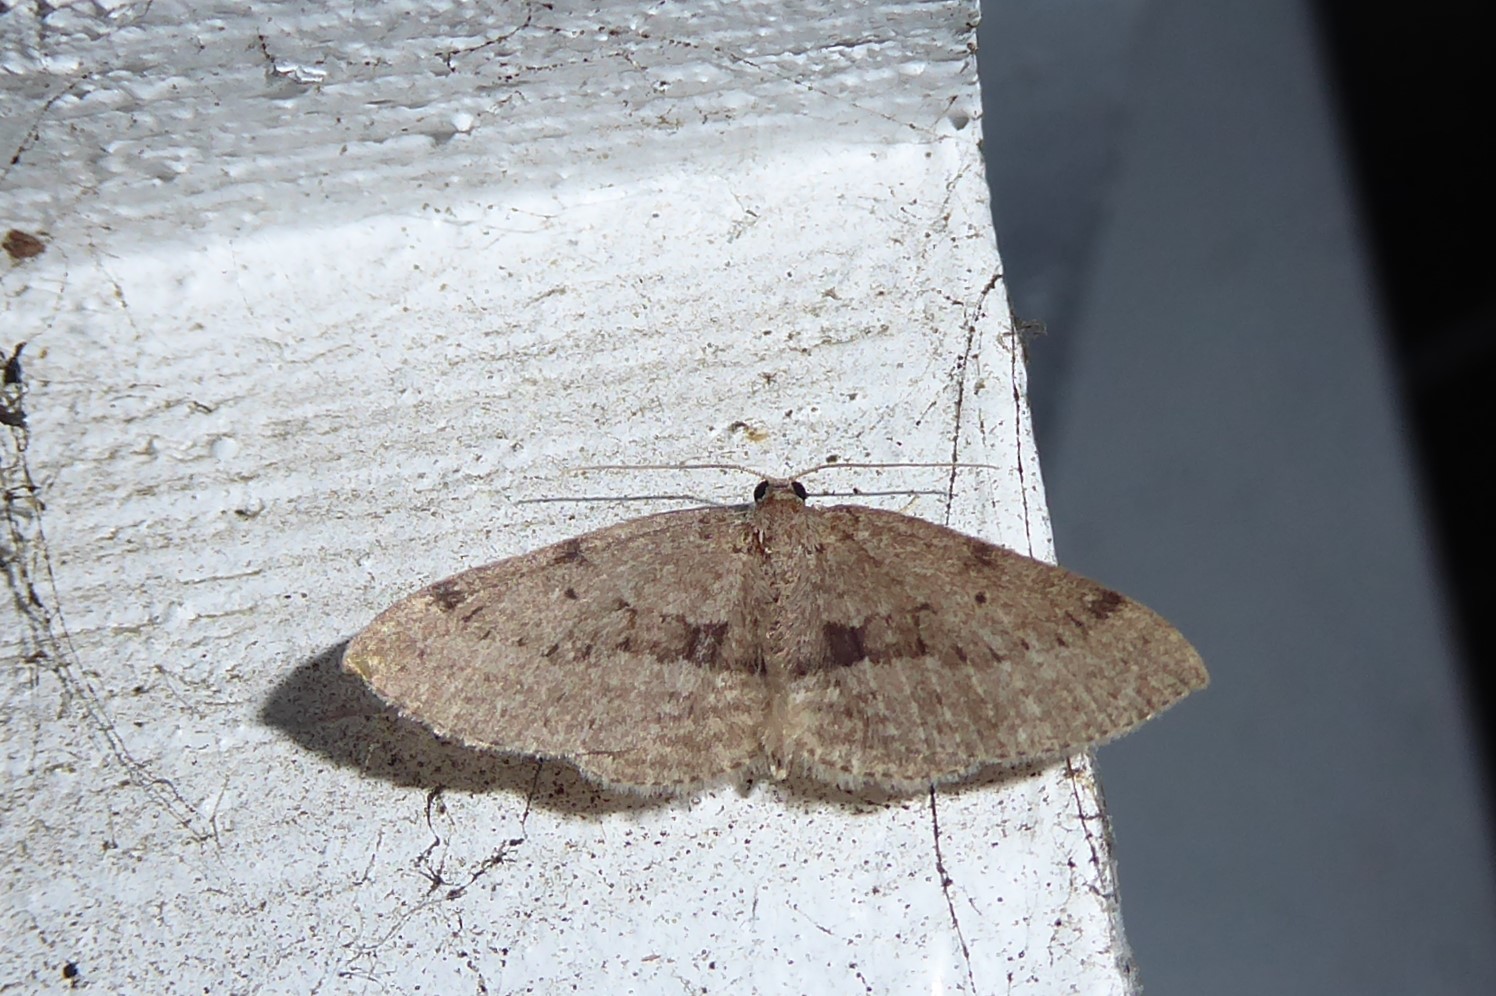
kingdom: Animalia
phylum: Arthropoda
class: Insecta
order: Lepidoptera
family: Geometridae
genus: Poecilasthena
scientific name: Poecilasthena schistaria
